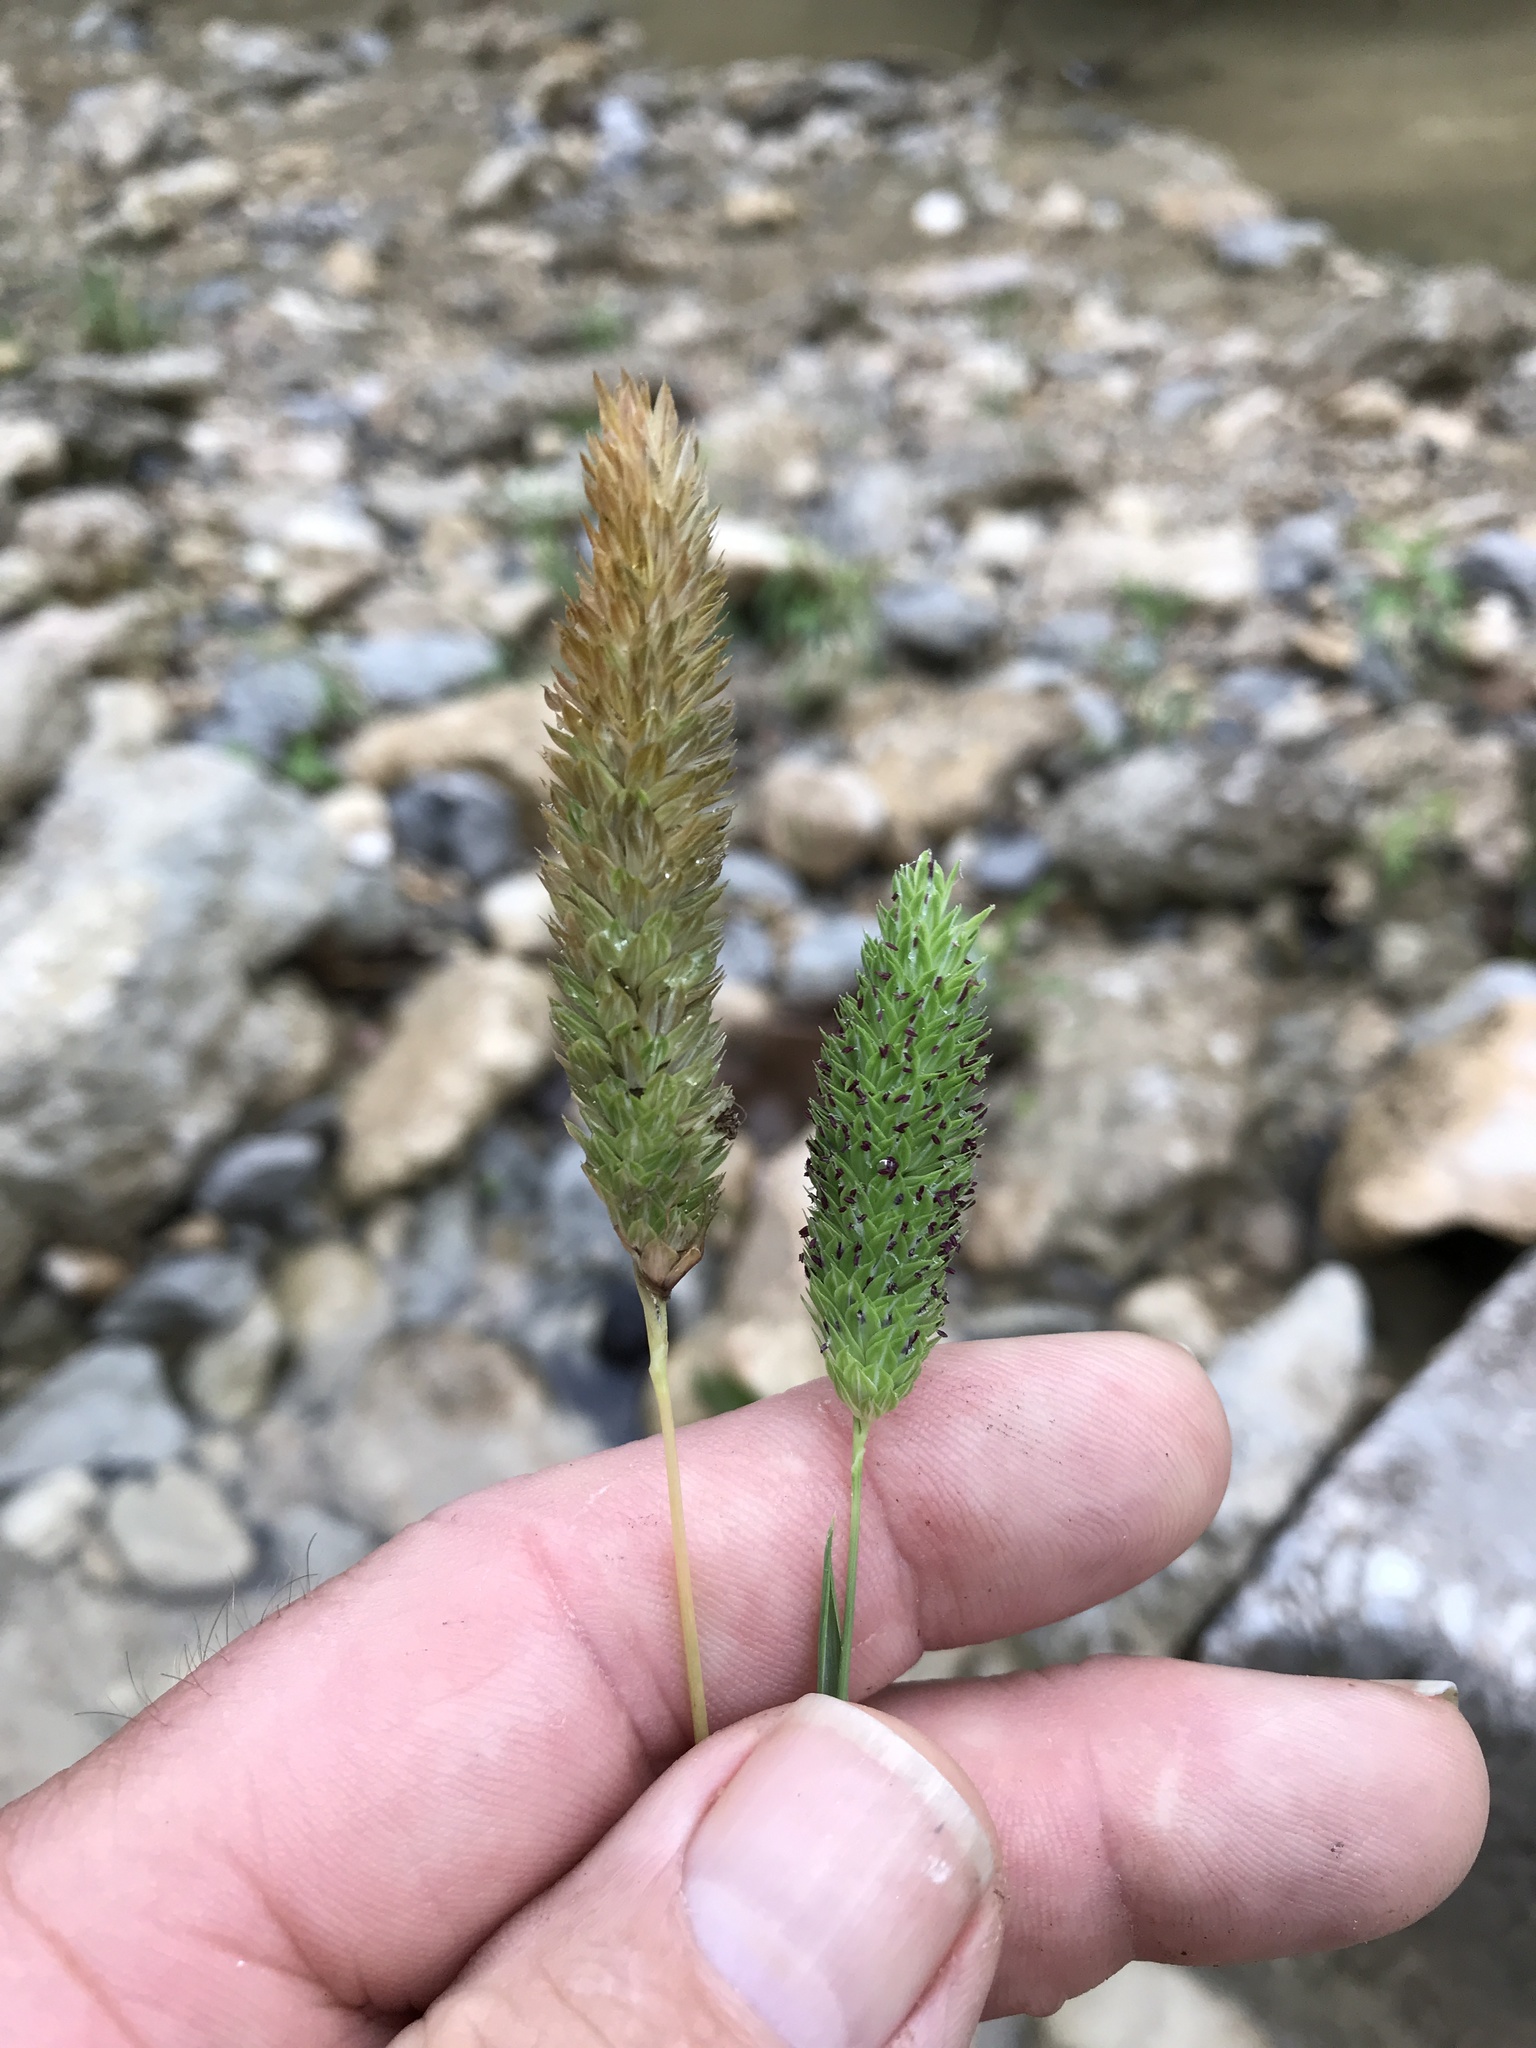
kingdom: Plantae
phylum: Tracheophyta
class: Liliopsida
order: Poales
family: Poaceae
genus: Phalaris
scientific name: Phalaris caroliniana
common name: May grass
